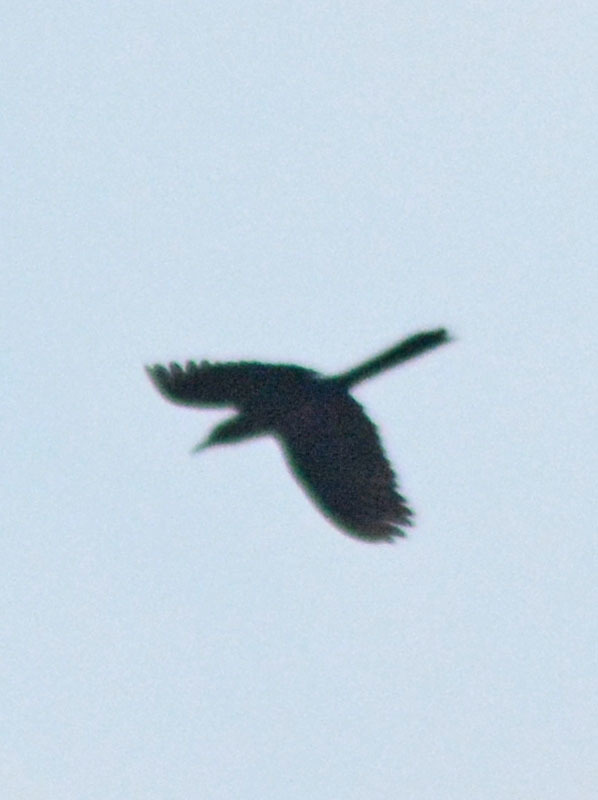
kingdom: Animalia
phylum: Chordata
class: Aves
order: Passeriformes
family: Icteridae
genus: Quiscalus
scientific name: Quiscalus mexicanus
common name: Great-tailed grackle
